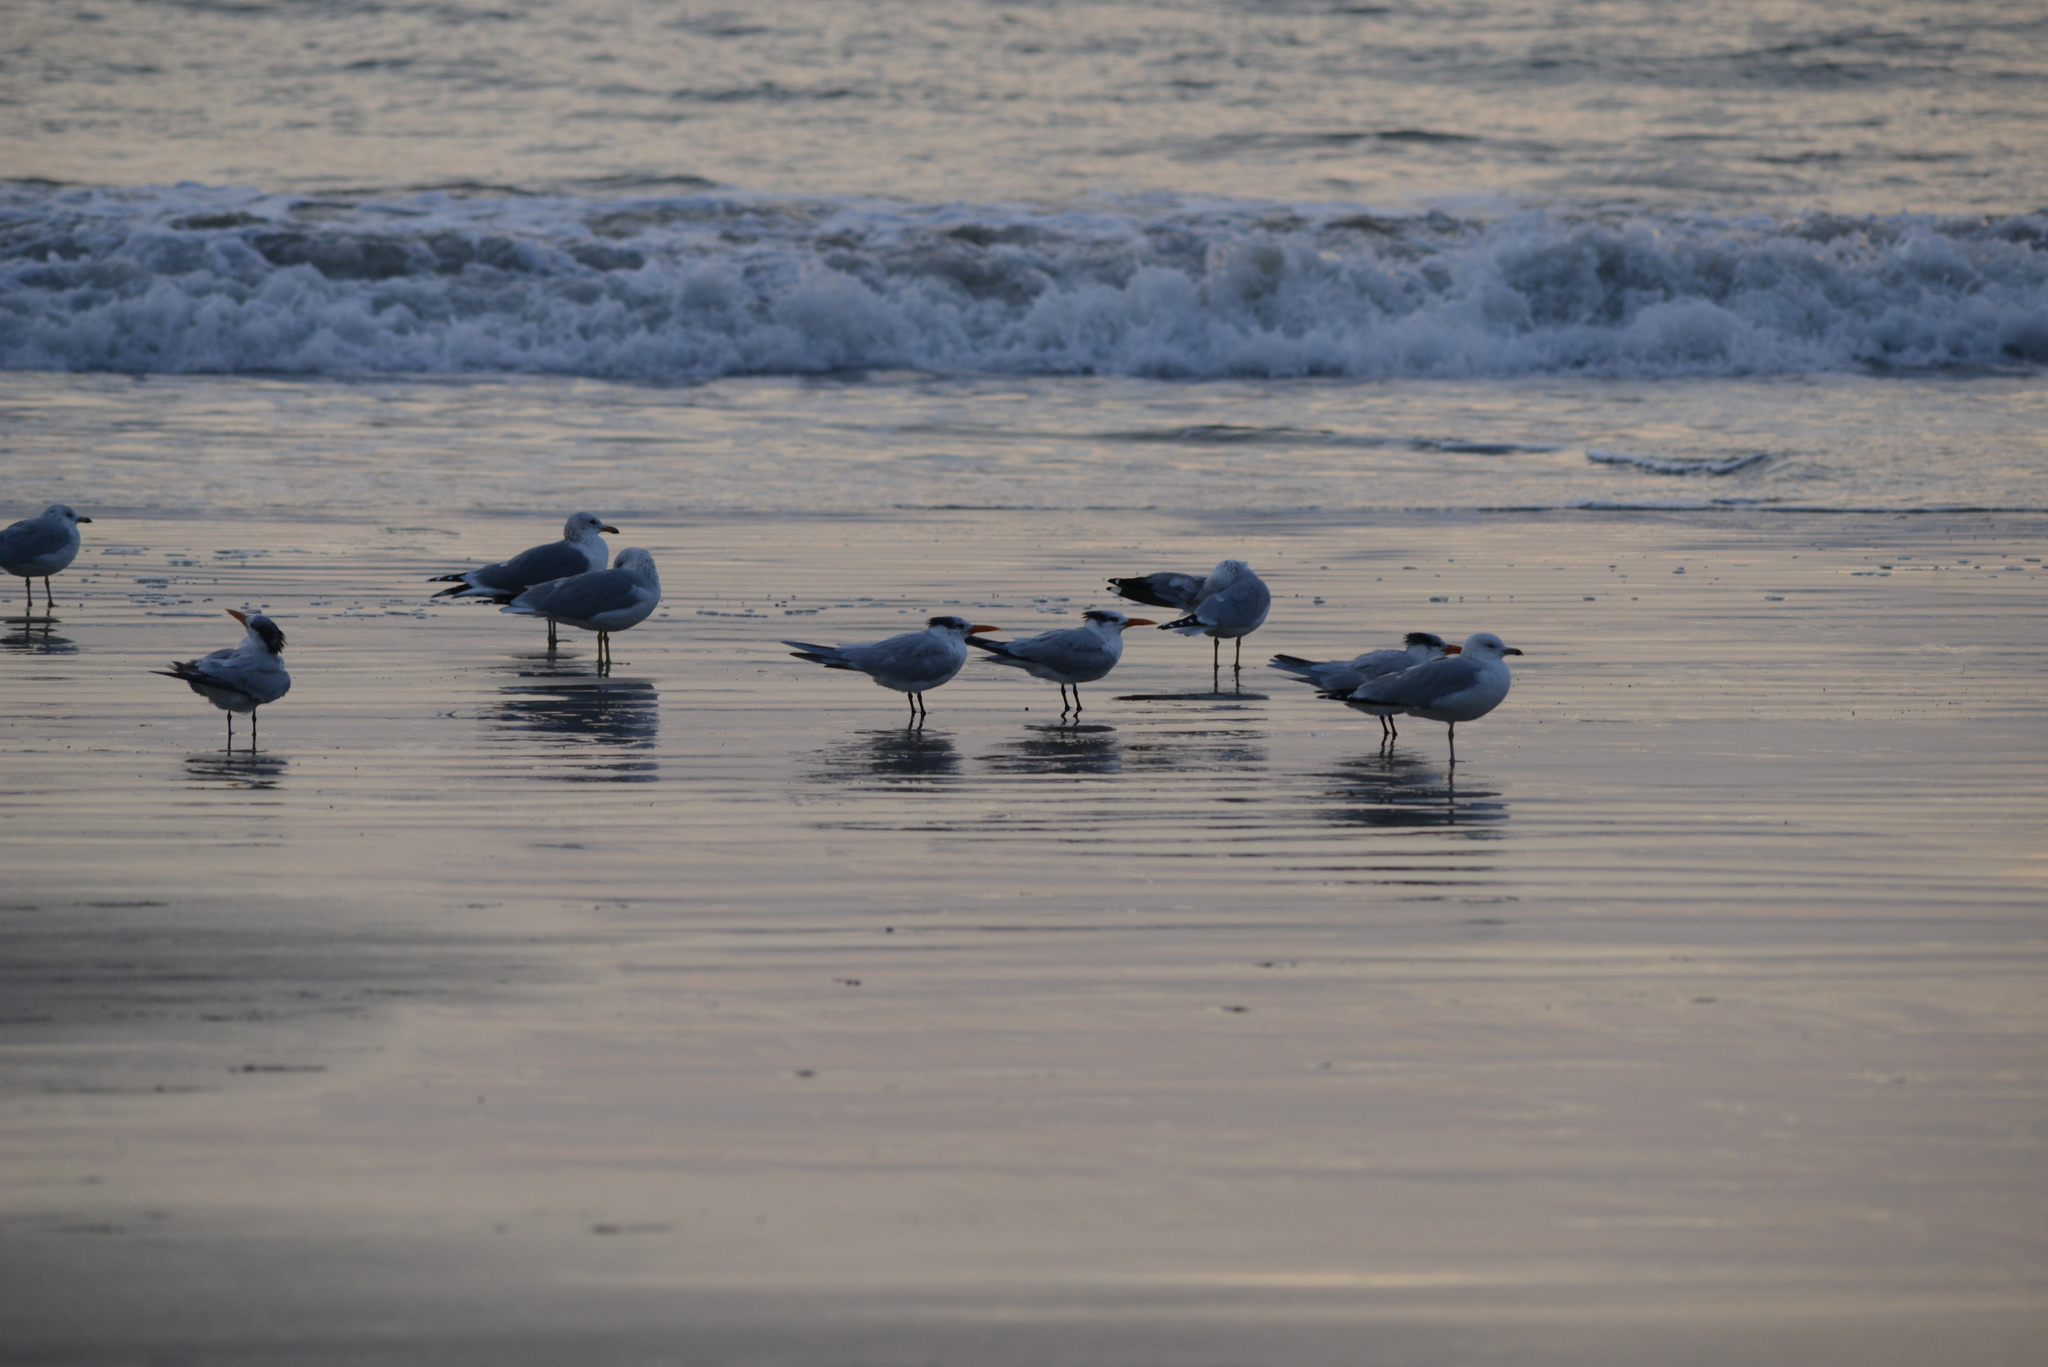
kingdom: Animalia
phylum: Chordata
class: Aves
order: Charadriiformes
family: Laridae
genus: Thalasseus
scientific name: Thalasseus maximus
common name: Royal tern
